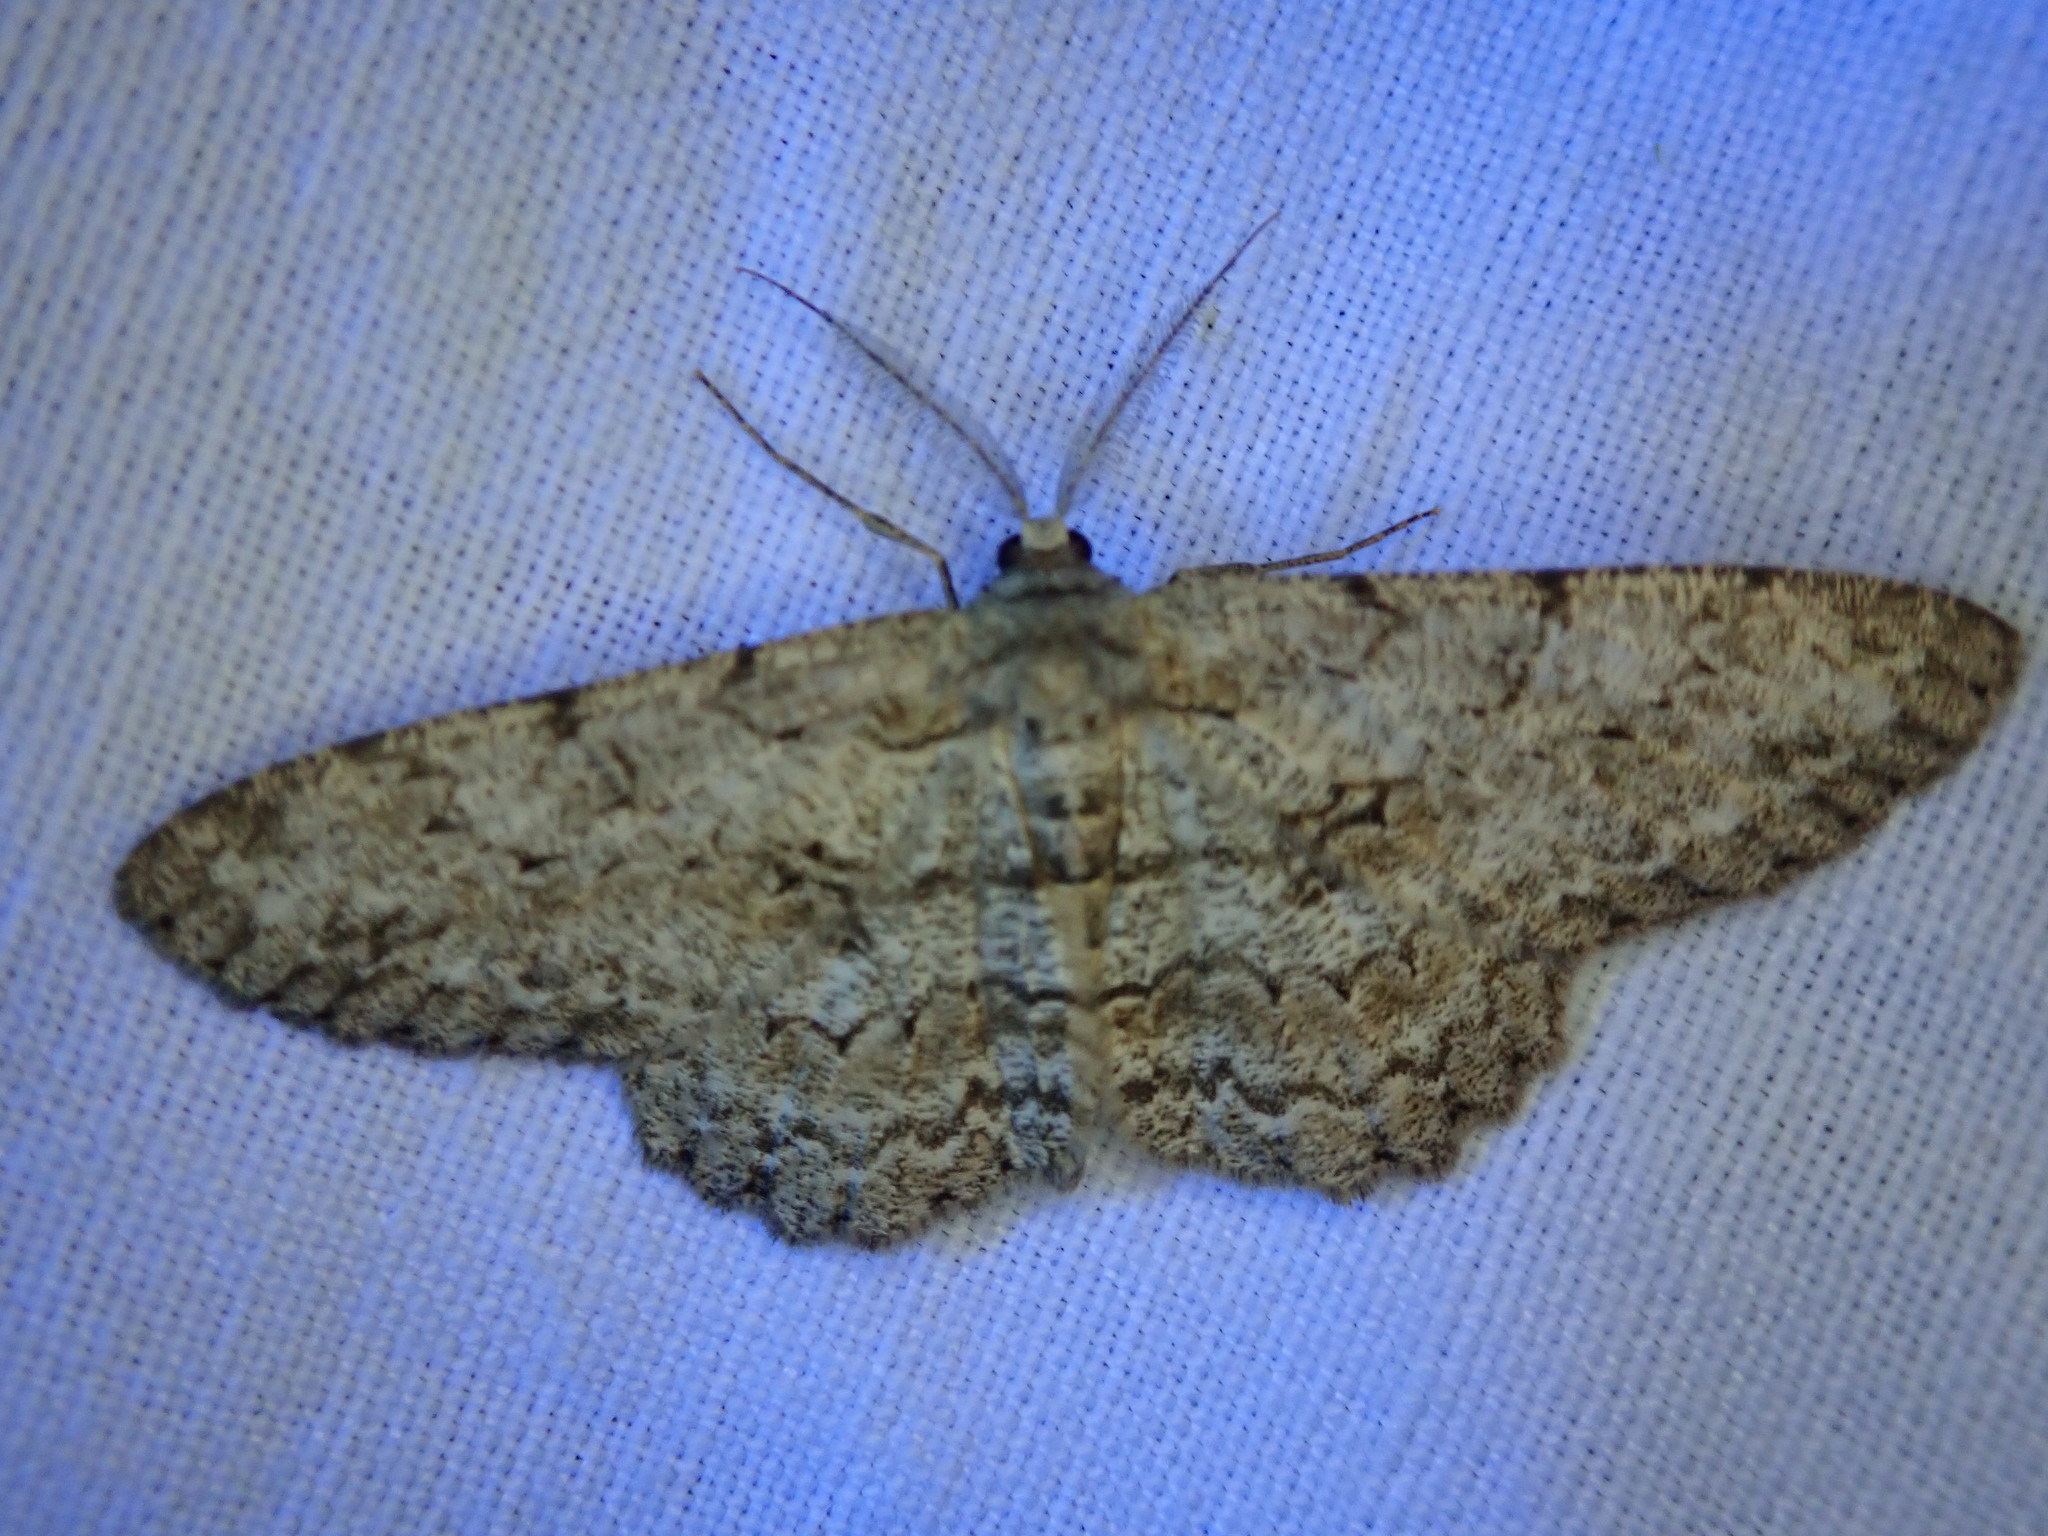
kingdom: Animalia
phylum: Arthropoda
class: Insecta
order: Lepidoptera
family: Geometridae
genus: Hypomecis
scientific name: Hypomecis punctinalis
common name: Pale oak beauty
